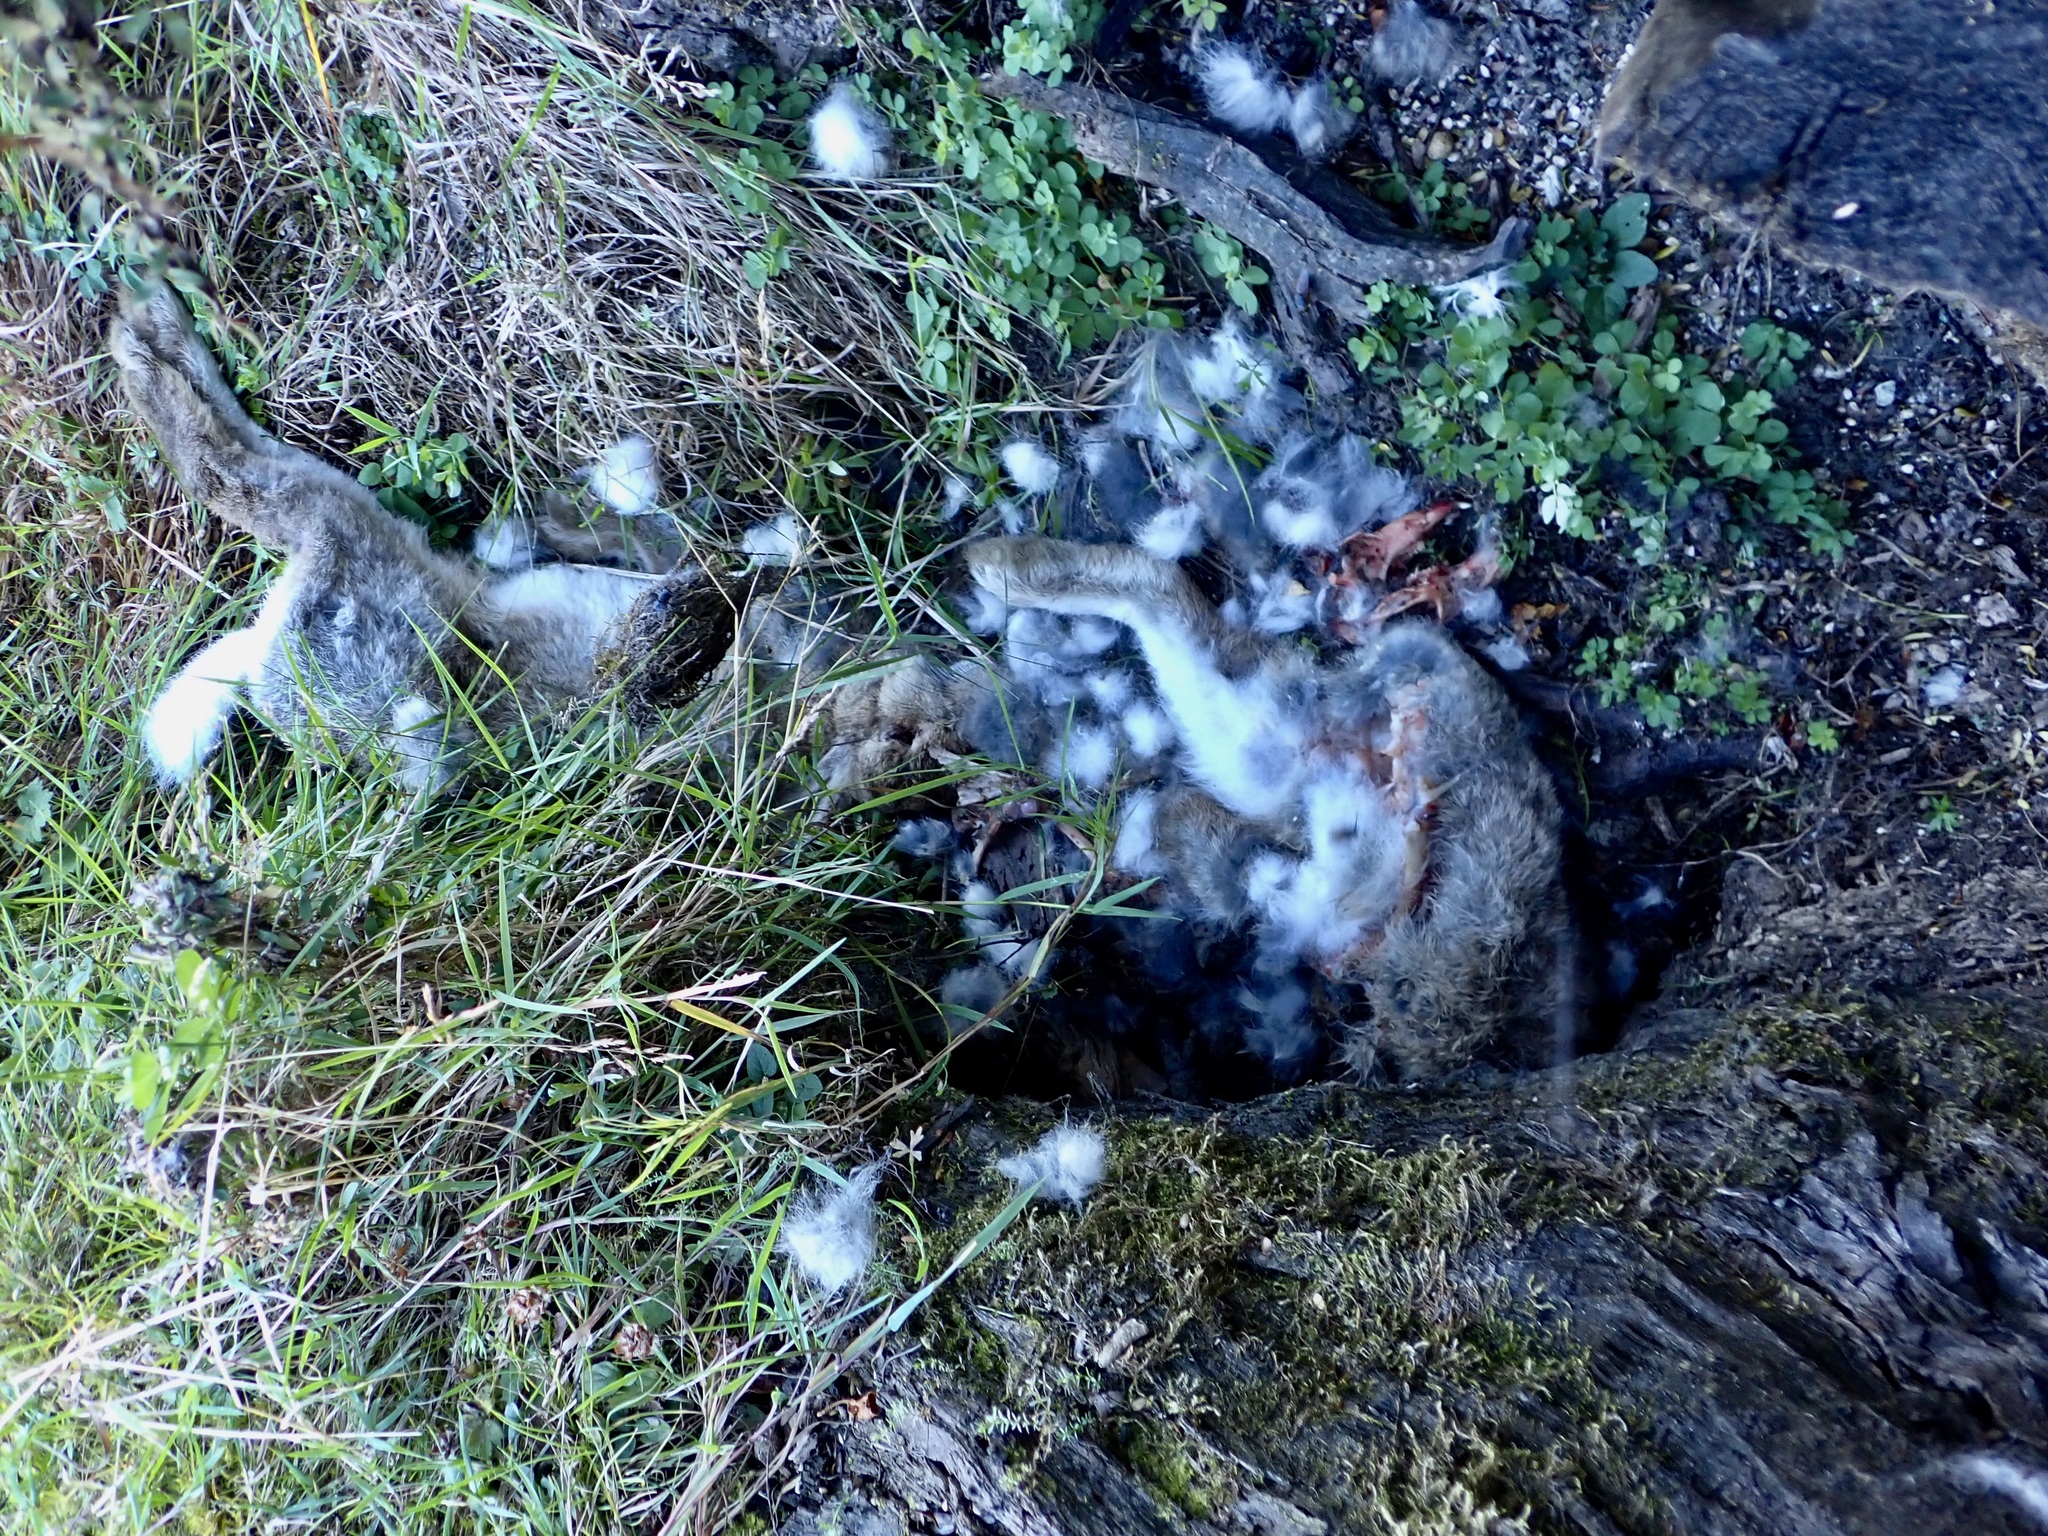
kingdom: Animalia
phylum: Chordata
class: Mammalia
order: Lagomorpha
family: Leporidae
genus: Oryctolagus
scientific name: Oryctolagus cuniculus
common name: European rabbit
